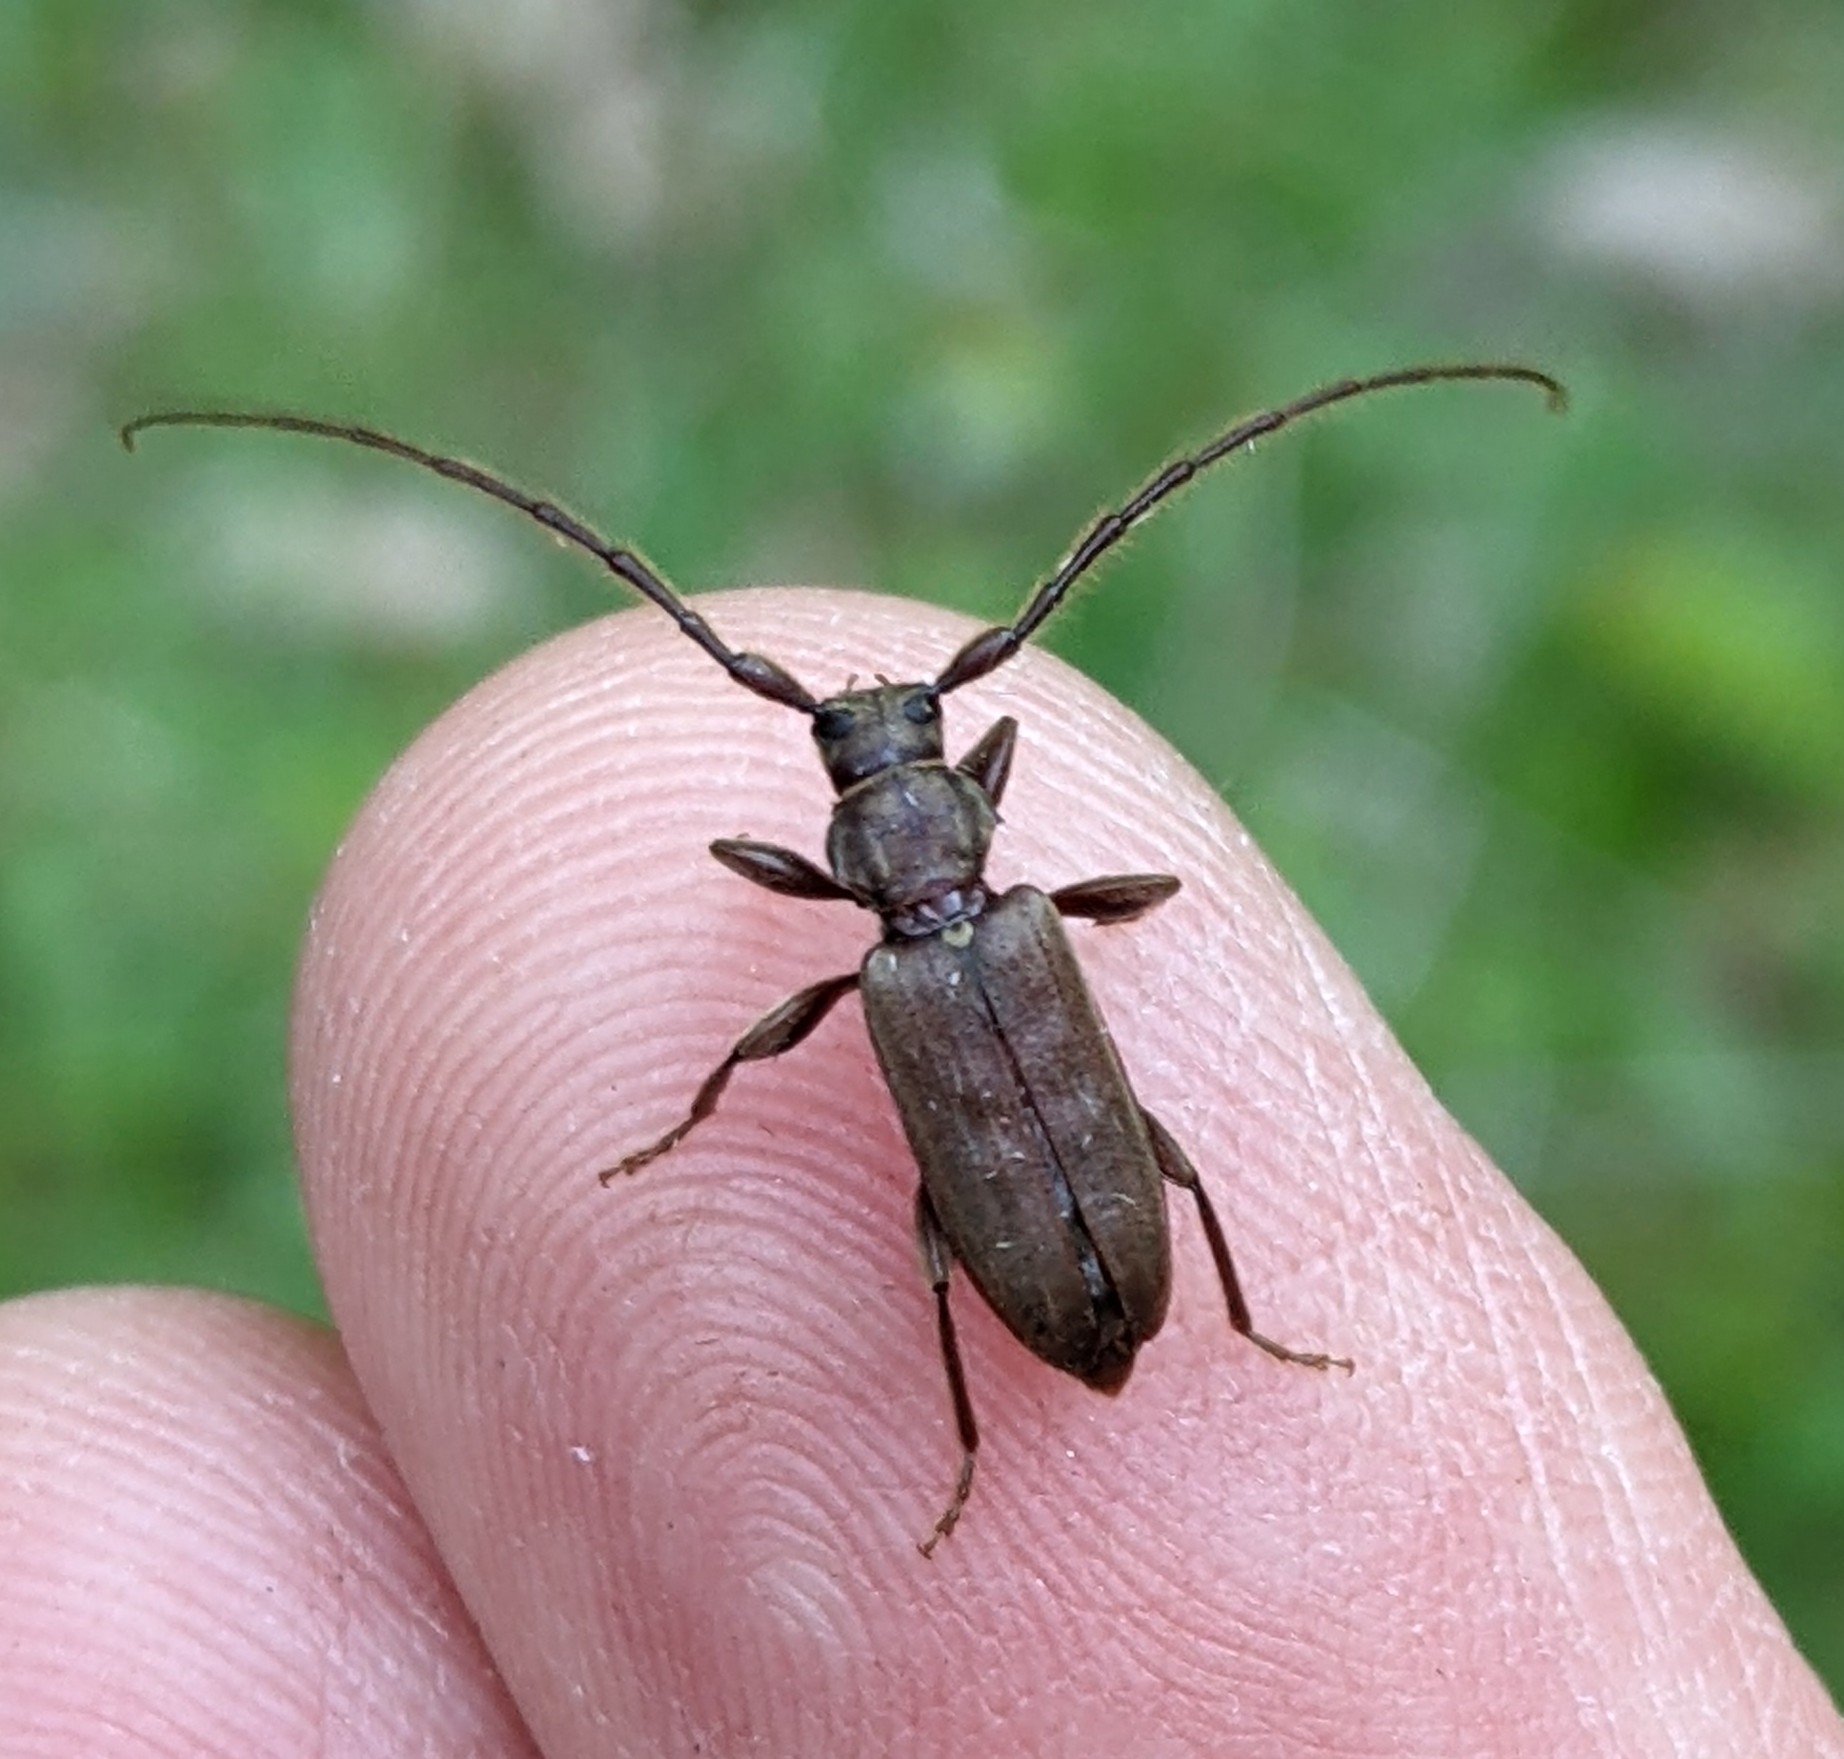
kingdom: Animalia
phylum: Arthropoda
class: Insecta
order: Coleoptera
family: Cerambycidae
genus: Opsimus
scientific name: Opsimus quadrilineatus
